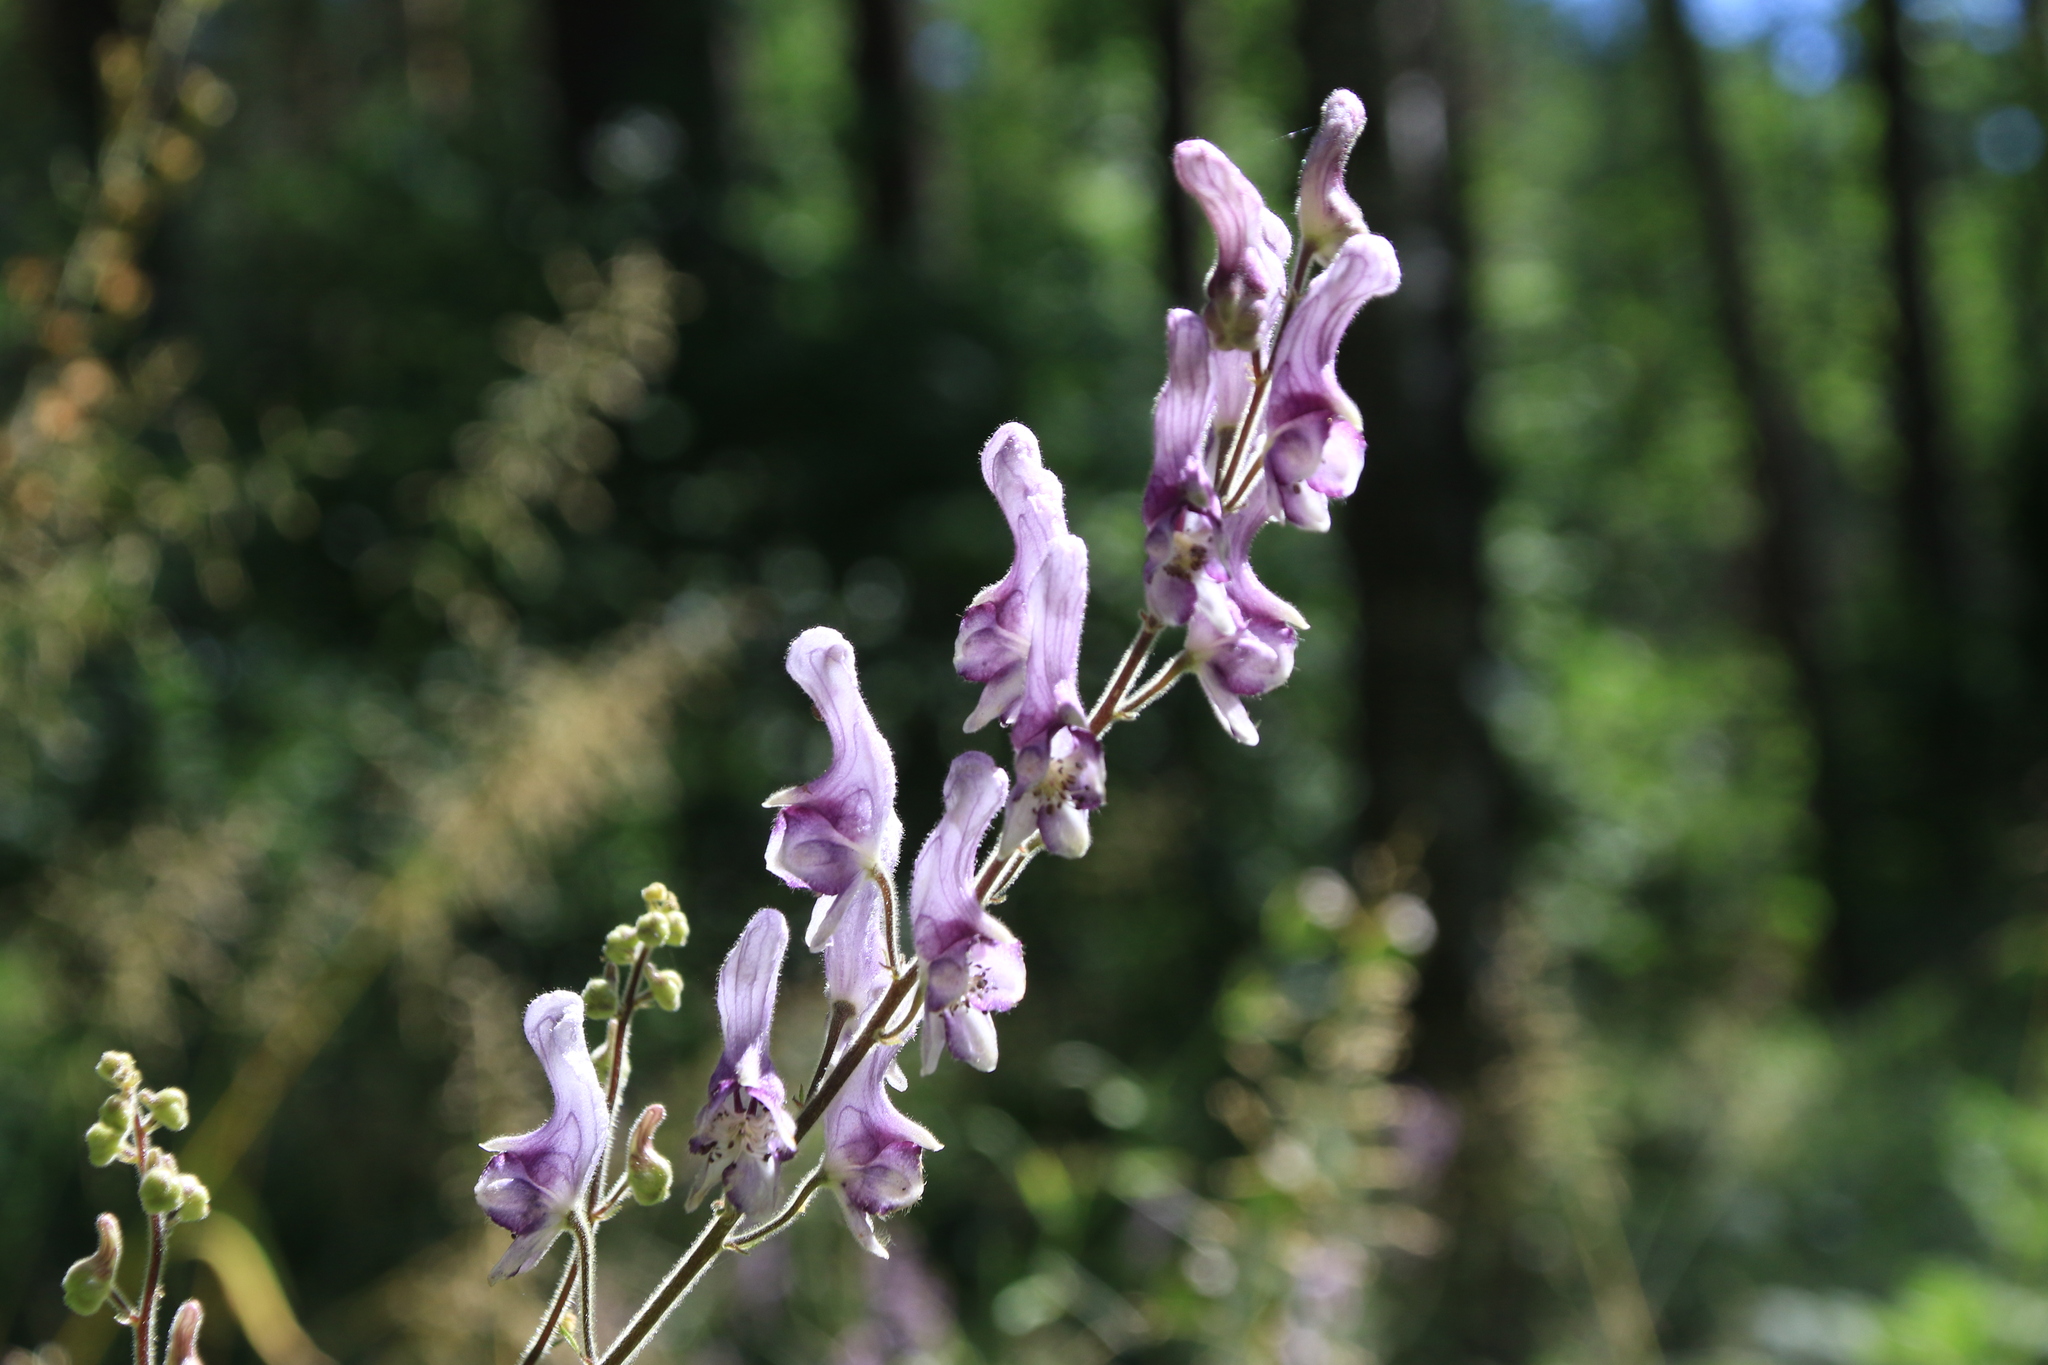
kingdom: Plantae
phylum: Tracheophyta
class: Magnoliopsida
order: Ranunculales
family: Ranunculaceae
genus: Aconitum
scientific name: Aconitum septentrionale
